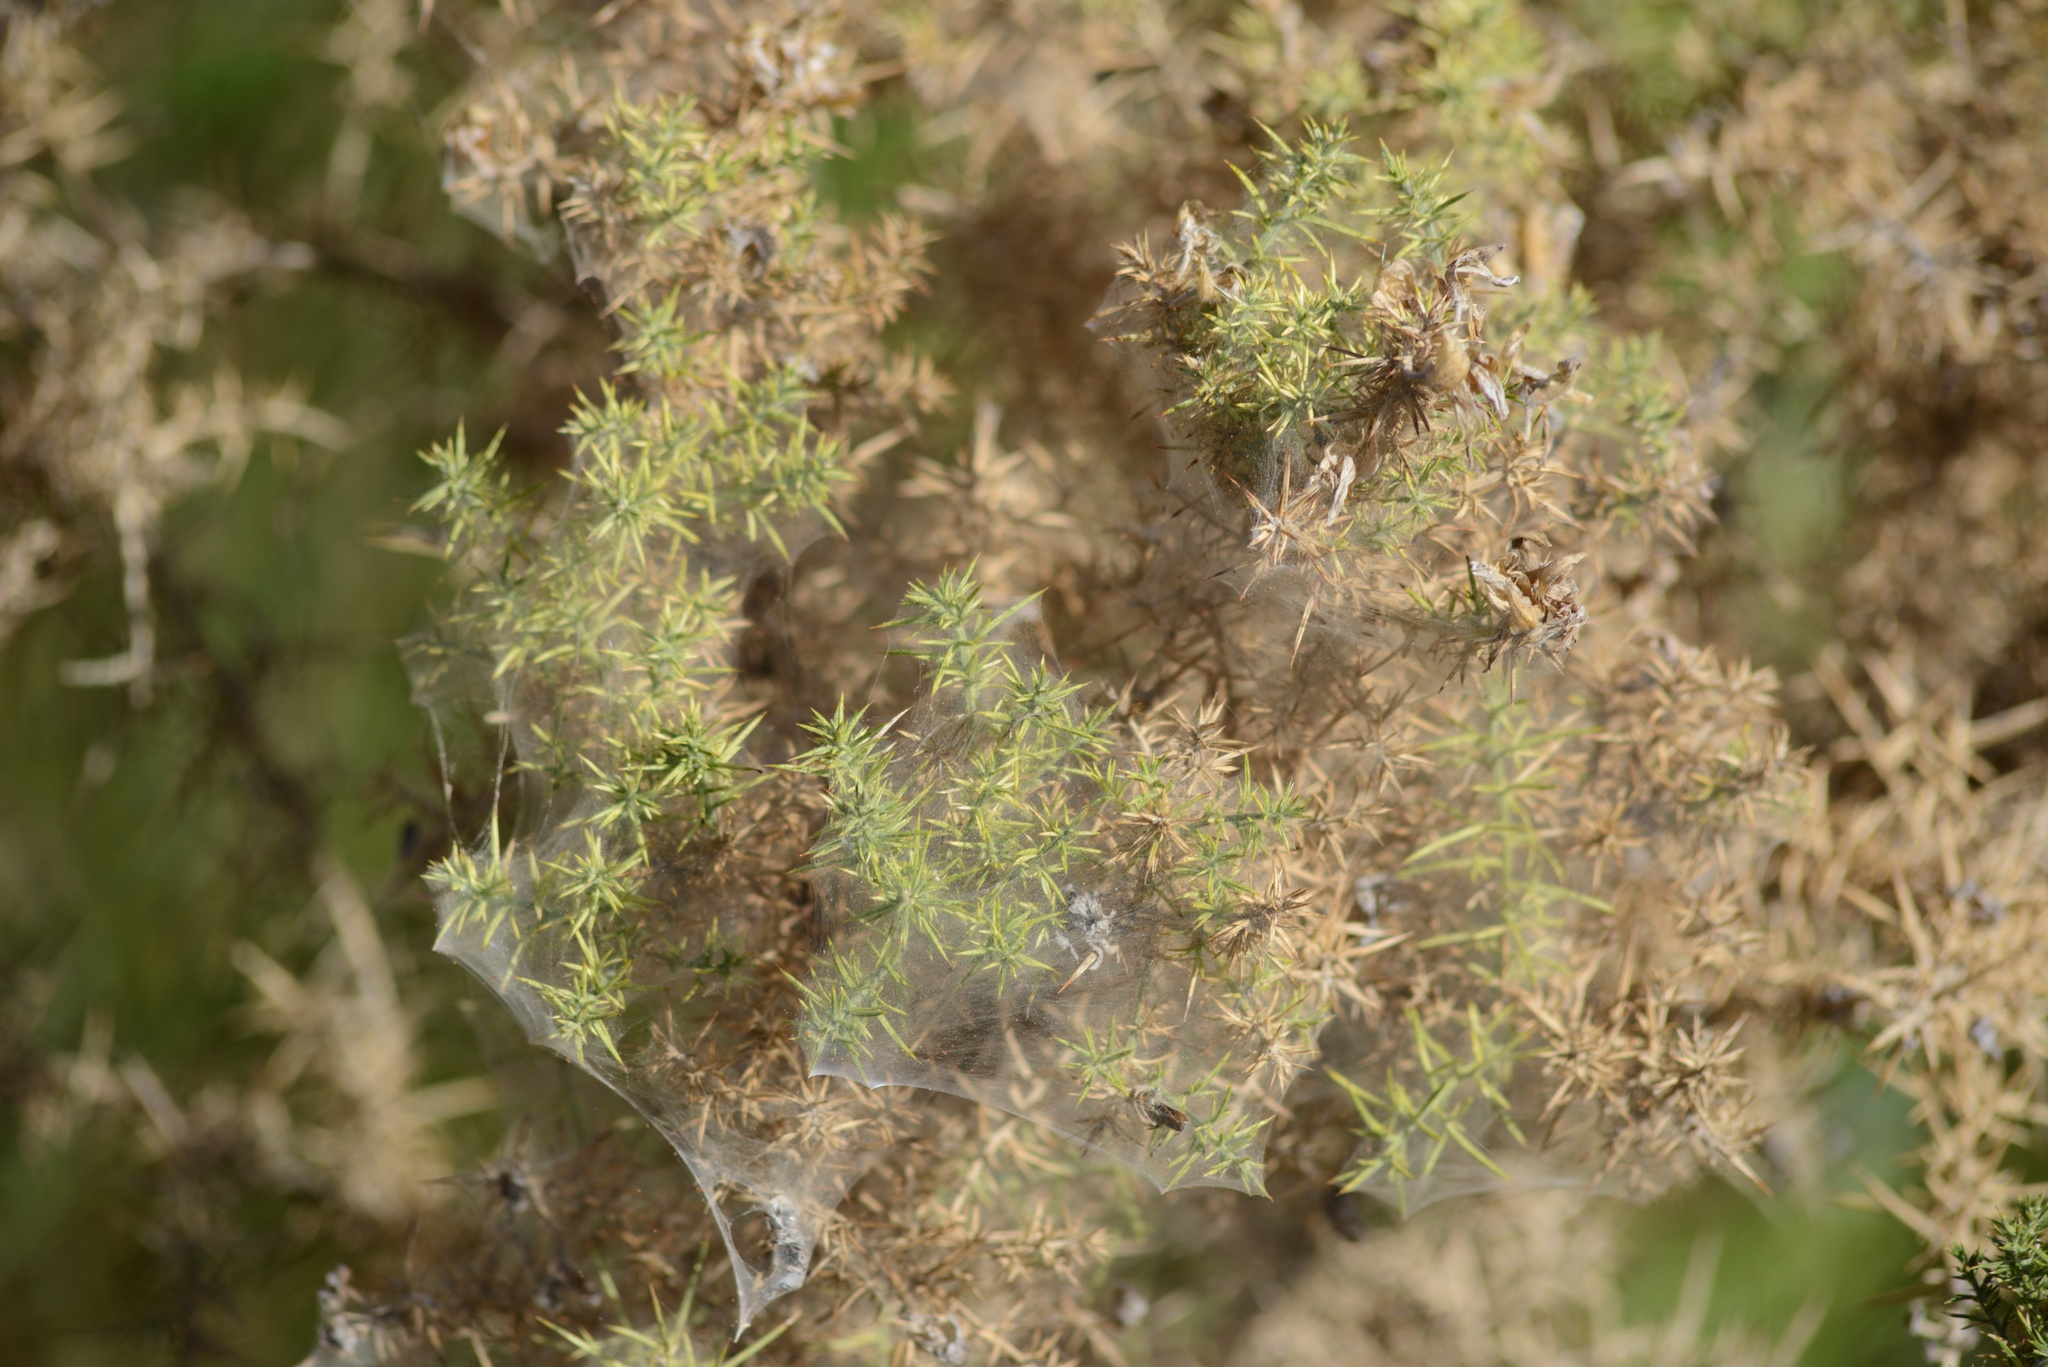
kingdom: Animalia
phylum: Arthropoda
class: Arachnida
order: Trombidiformes
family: Tetranychidae
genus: Tetranychus
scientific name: Tetranychus lintearius
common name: Gorse spider mite
